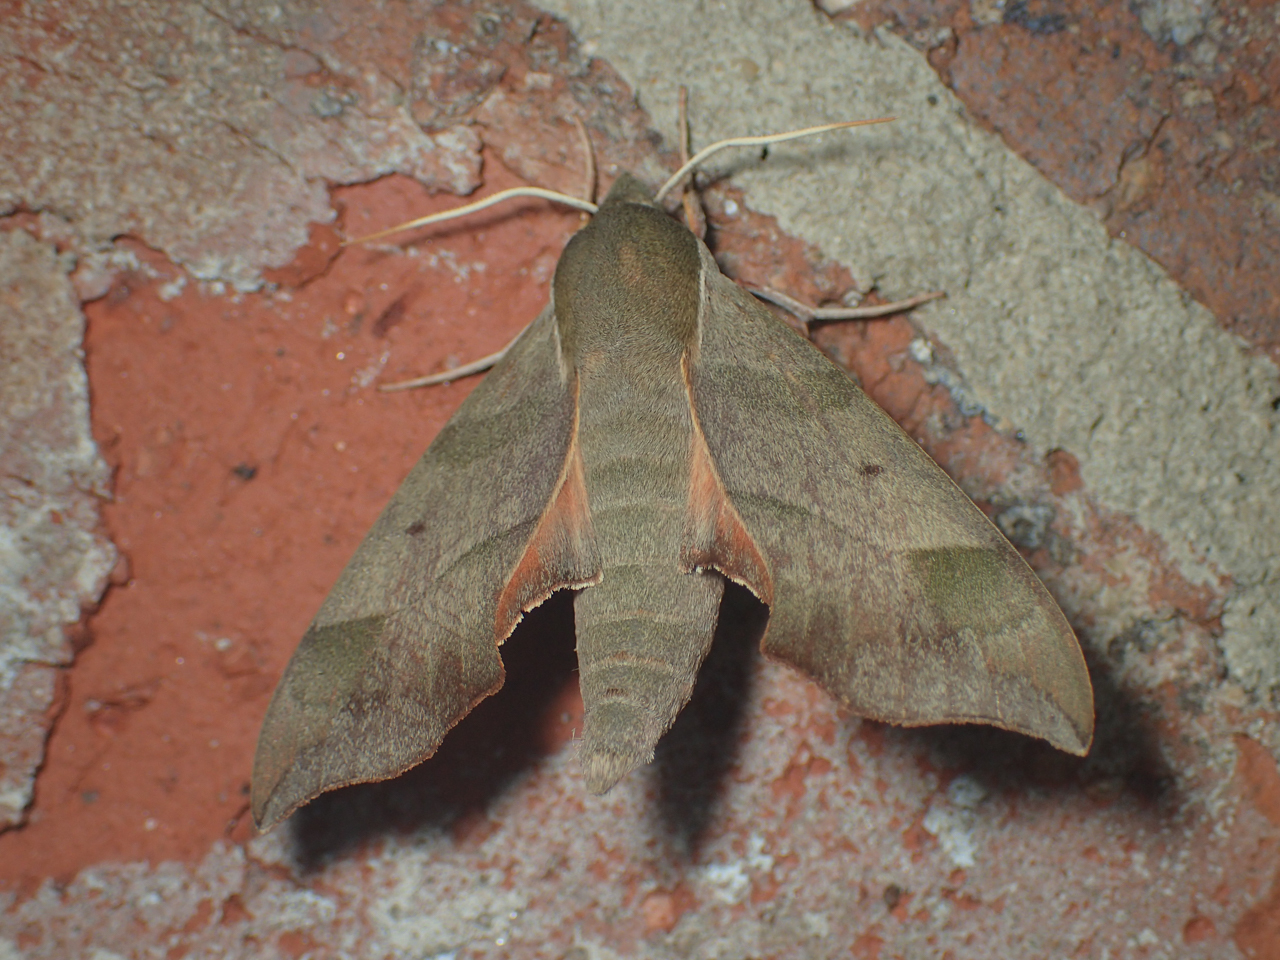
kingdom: Animalia
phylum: Arthropoda
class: Insecta
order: Lepidoptera
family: Sphingidae
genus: Darapsa
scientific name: Darapsa myron
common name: Hog sphinx
